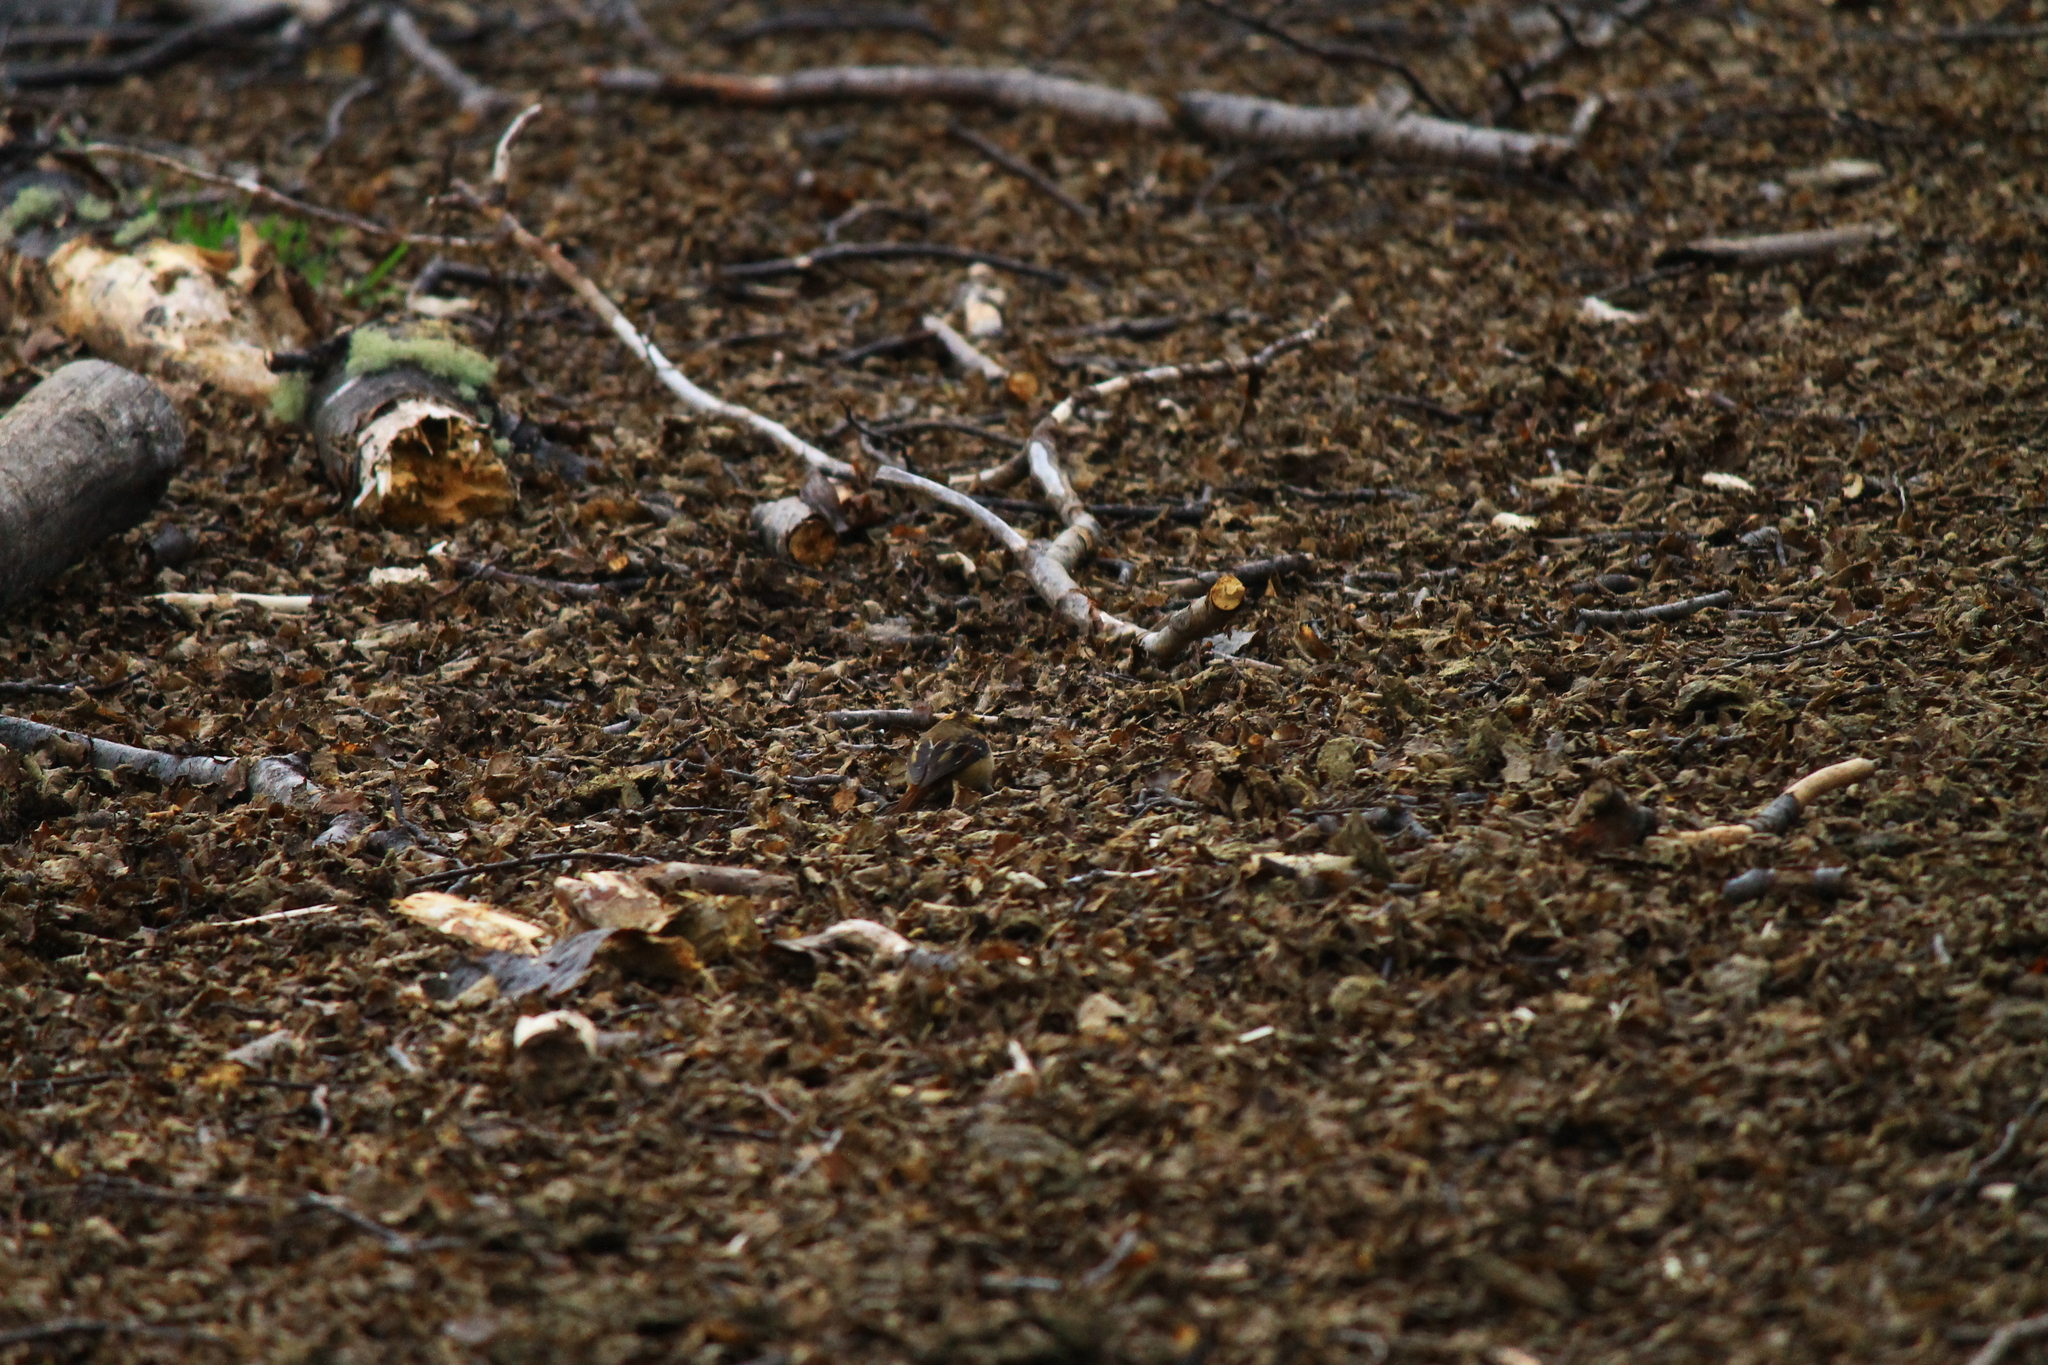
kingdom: Animalia
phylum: Chordata
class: Aves
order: Passeriformes
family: Furnariidae
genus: Aphrastura
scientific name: Aphrastura spinicauda
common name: Thorn-tailed rayadito
